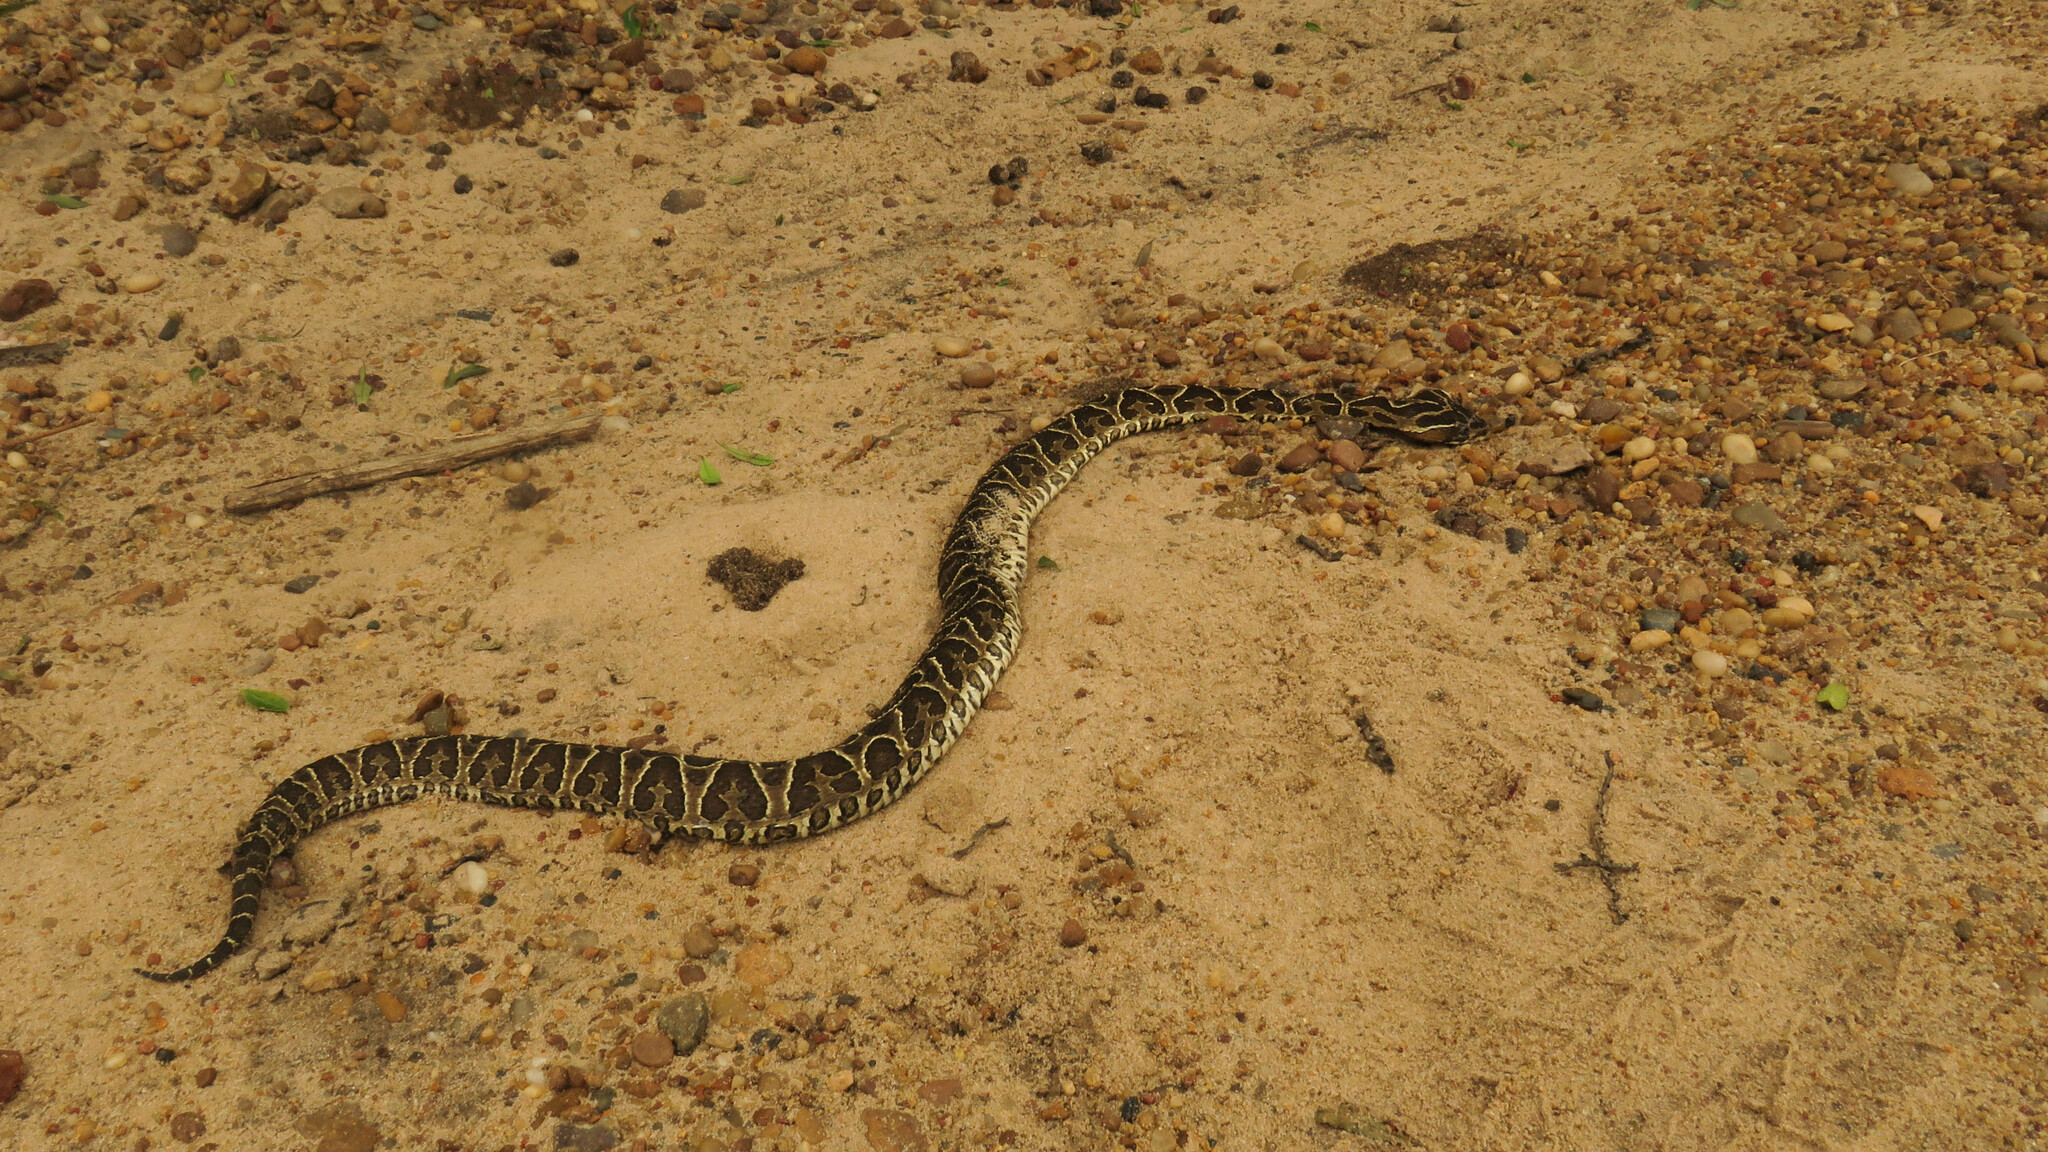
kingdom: Animalia
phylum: Chordata
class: Squamata
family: Viperidae
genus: Bothrops
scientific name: Bothrops alternatus
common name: Urutu
